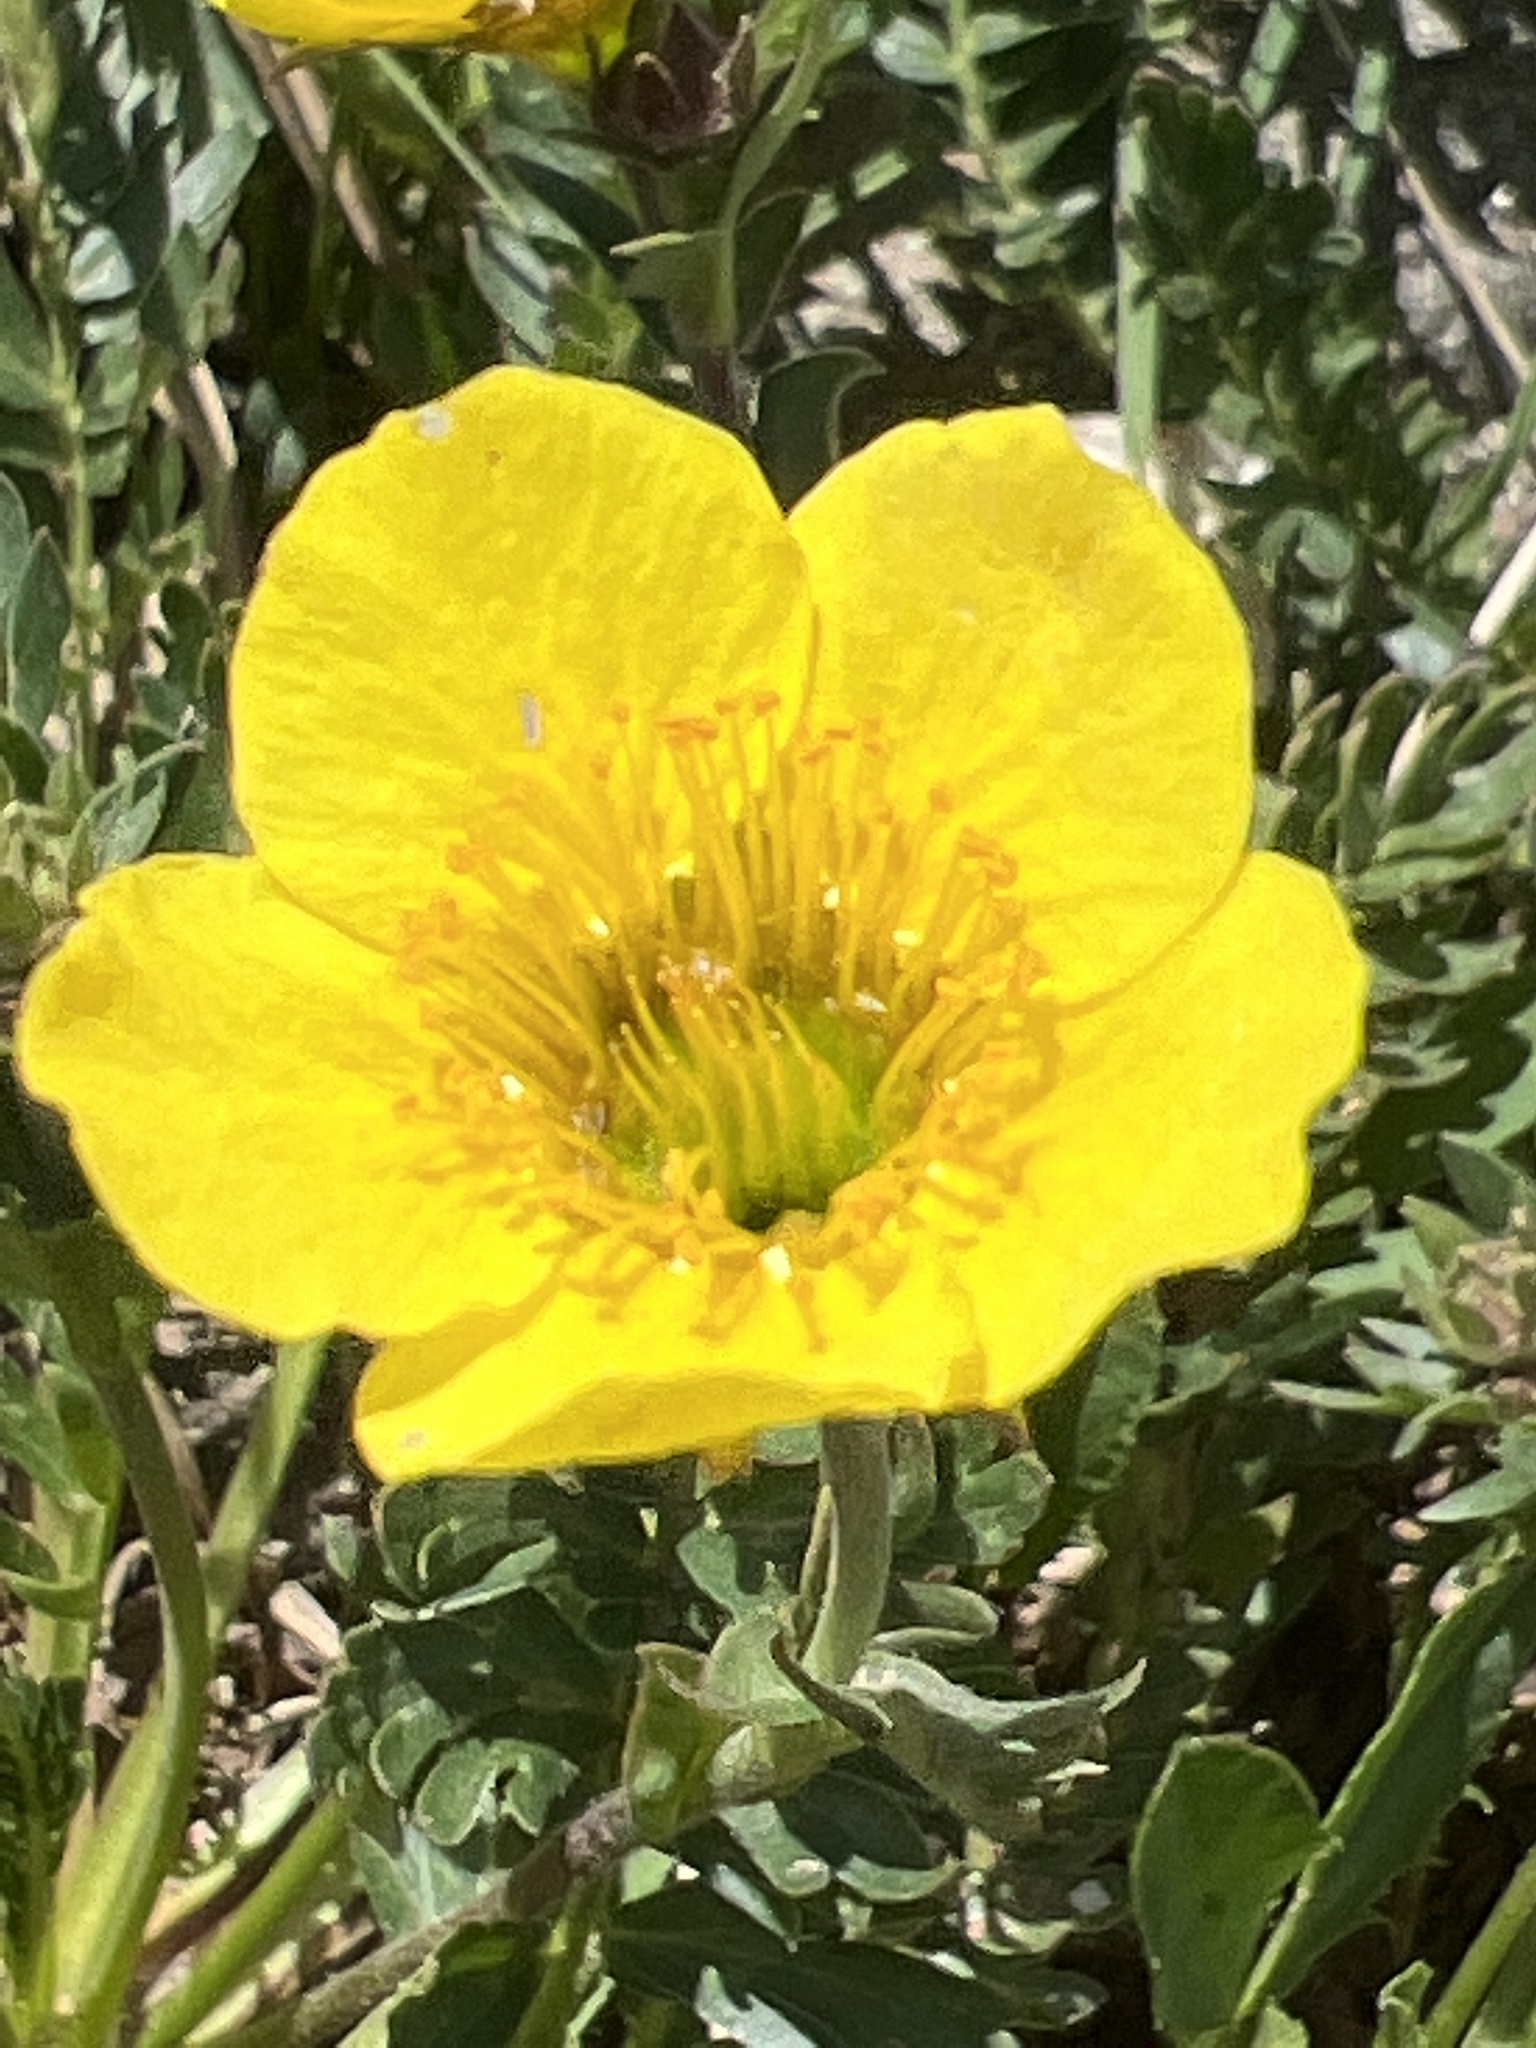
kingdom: Plantae
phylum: Tracheophyta
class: Magnoliopsida
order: Rosales
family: Rosaceae
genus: Geum
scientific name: Geum rossii
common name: Alpine avens
